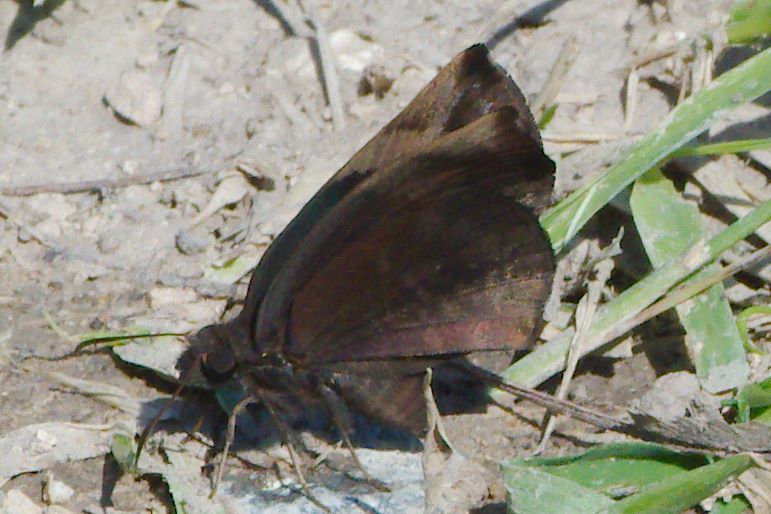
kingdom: Animalia
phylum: Arthropoda
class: Insecta
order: Lepidoptera
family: Hesperiidae
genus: Achlyodes
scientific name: Achlyodes thraso
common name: Sickle-winged skipper
